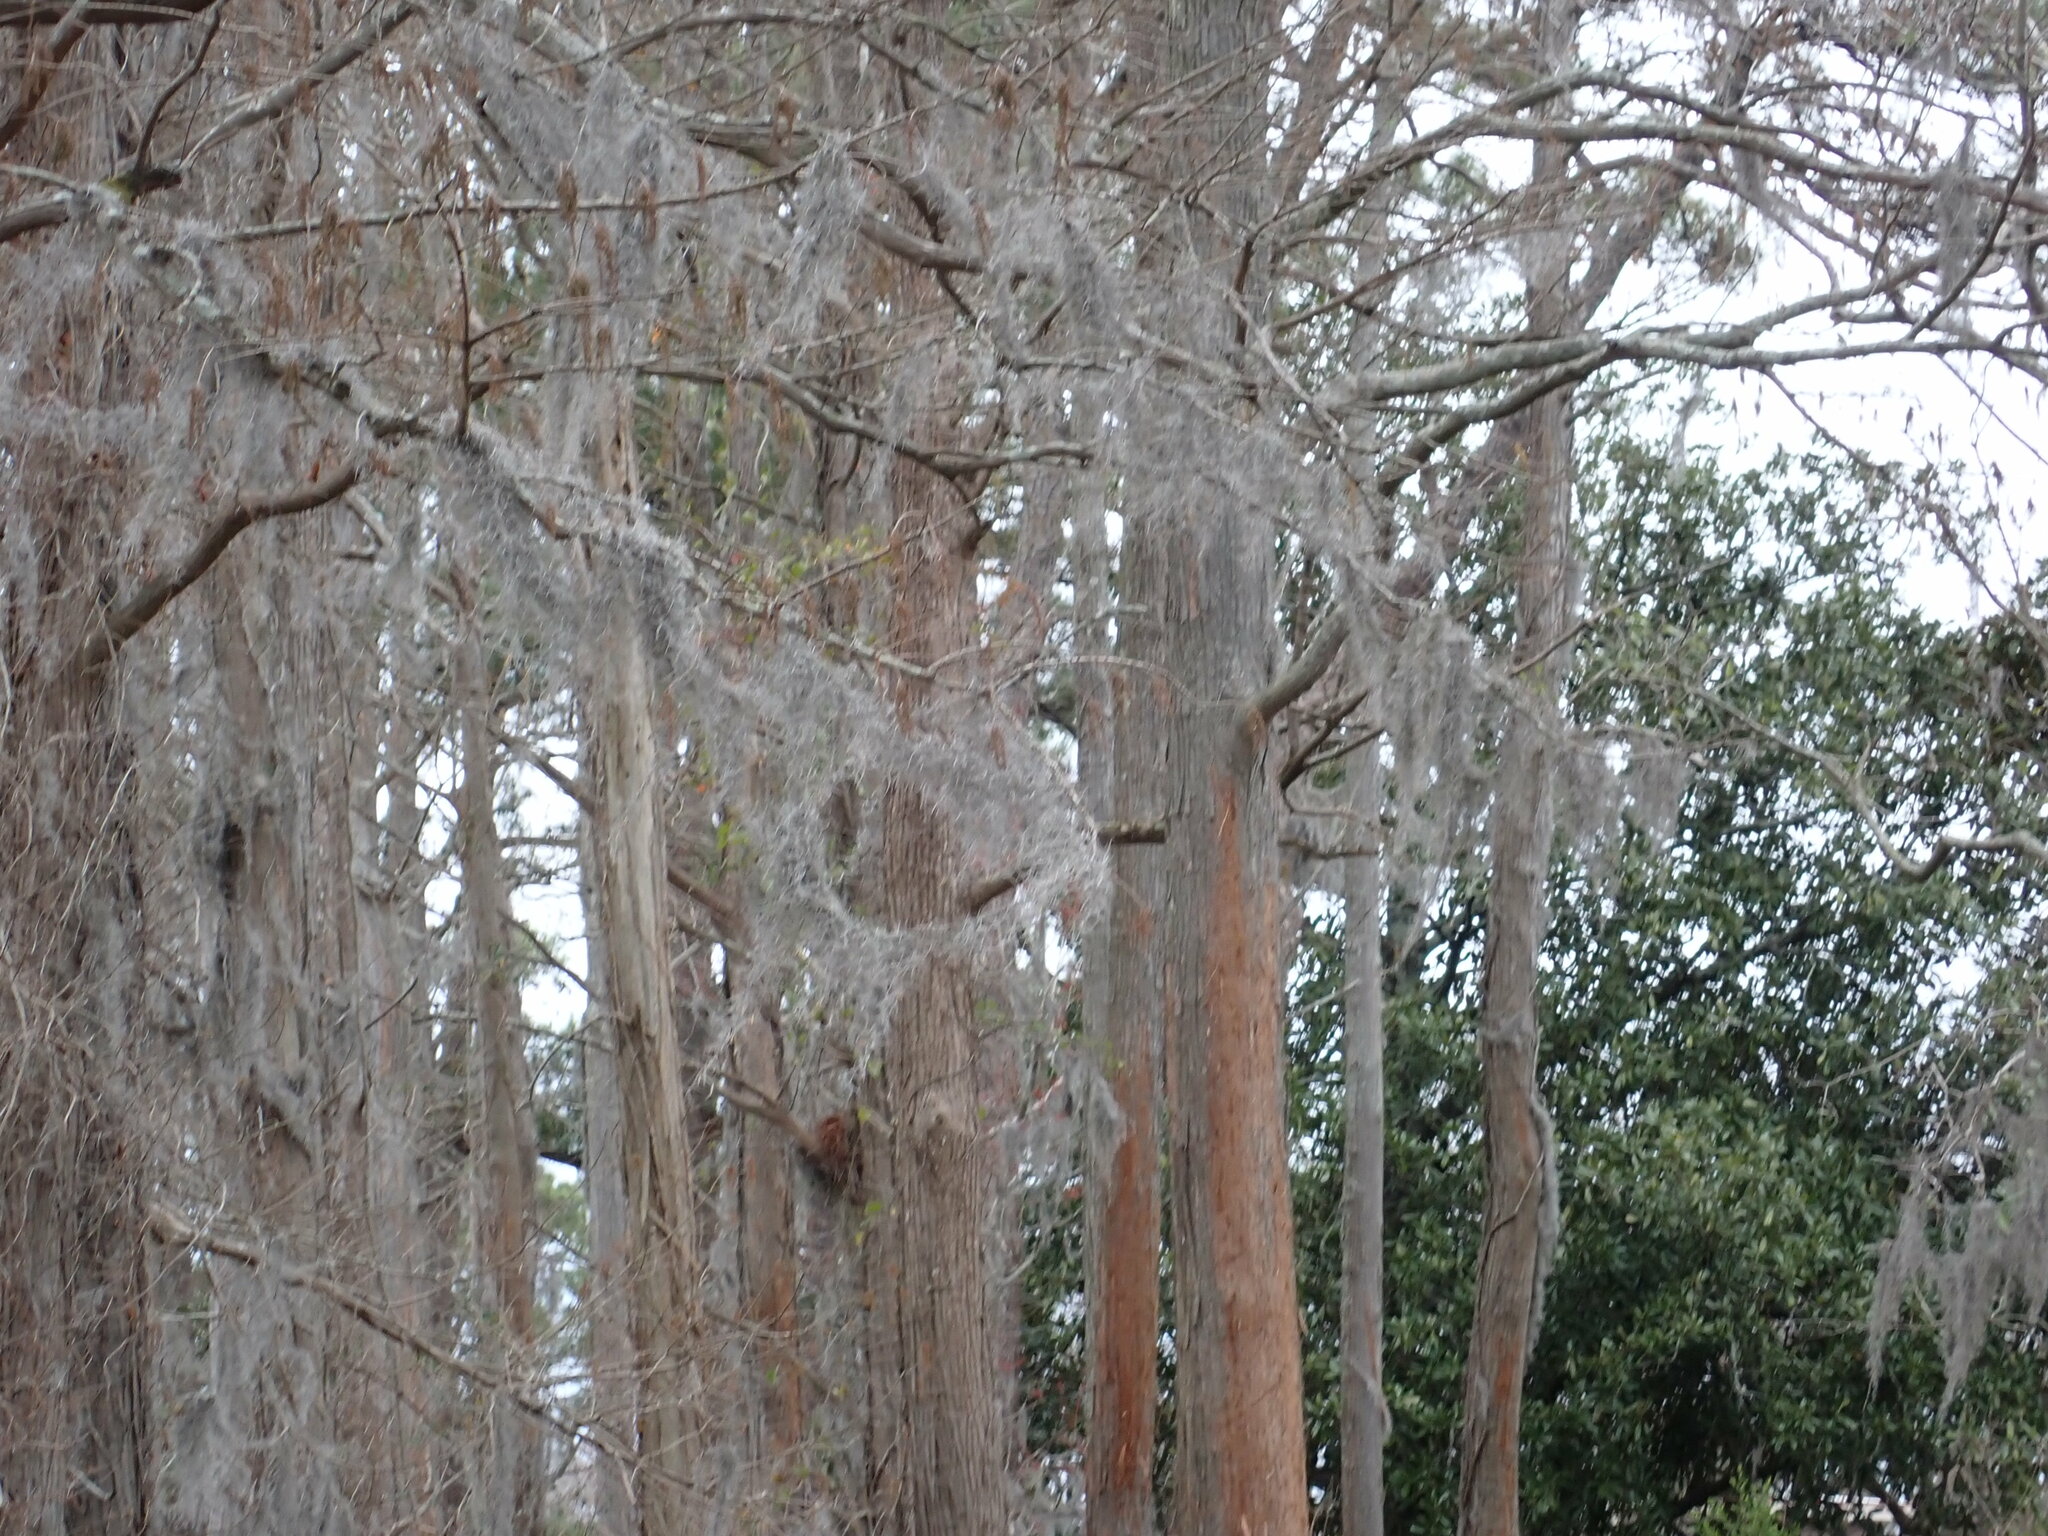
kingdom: Plantae
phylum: Tracheophyta
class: Liliopsida
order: Poales
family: Bromeliaceae
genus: Tillandsia
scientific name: Tillandsia usneoides
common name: Spanish moss
